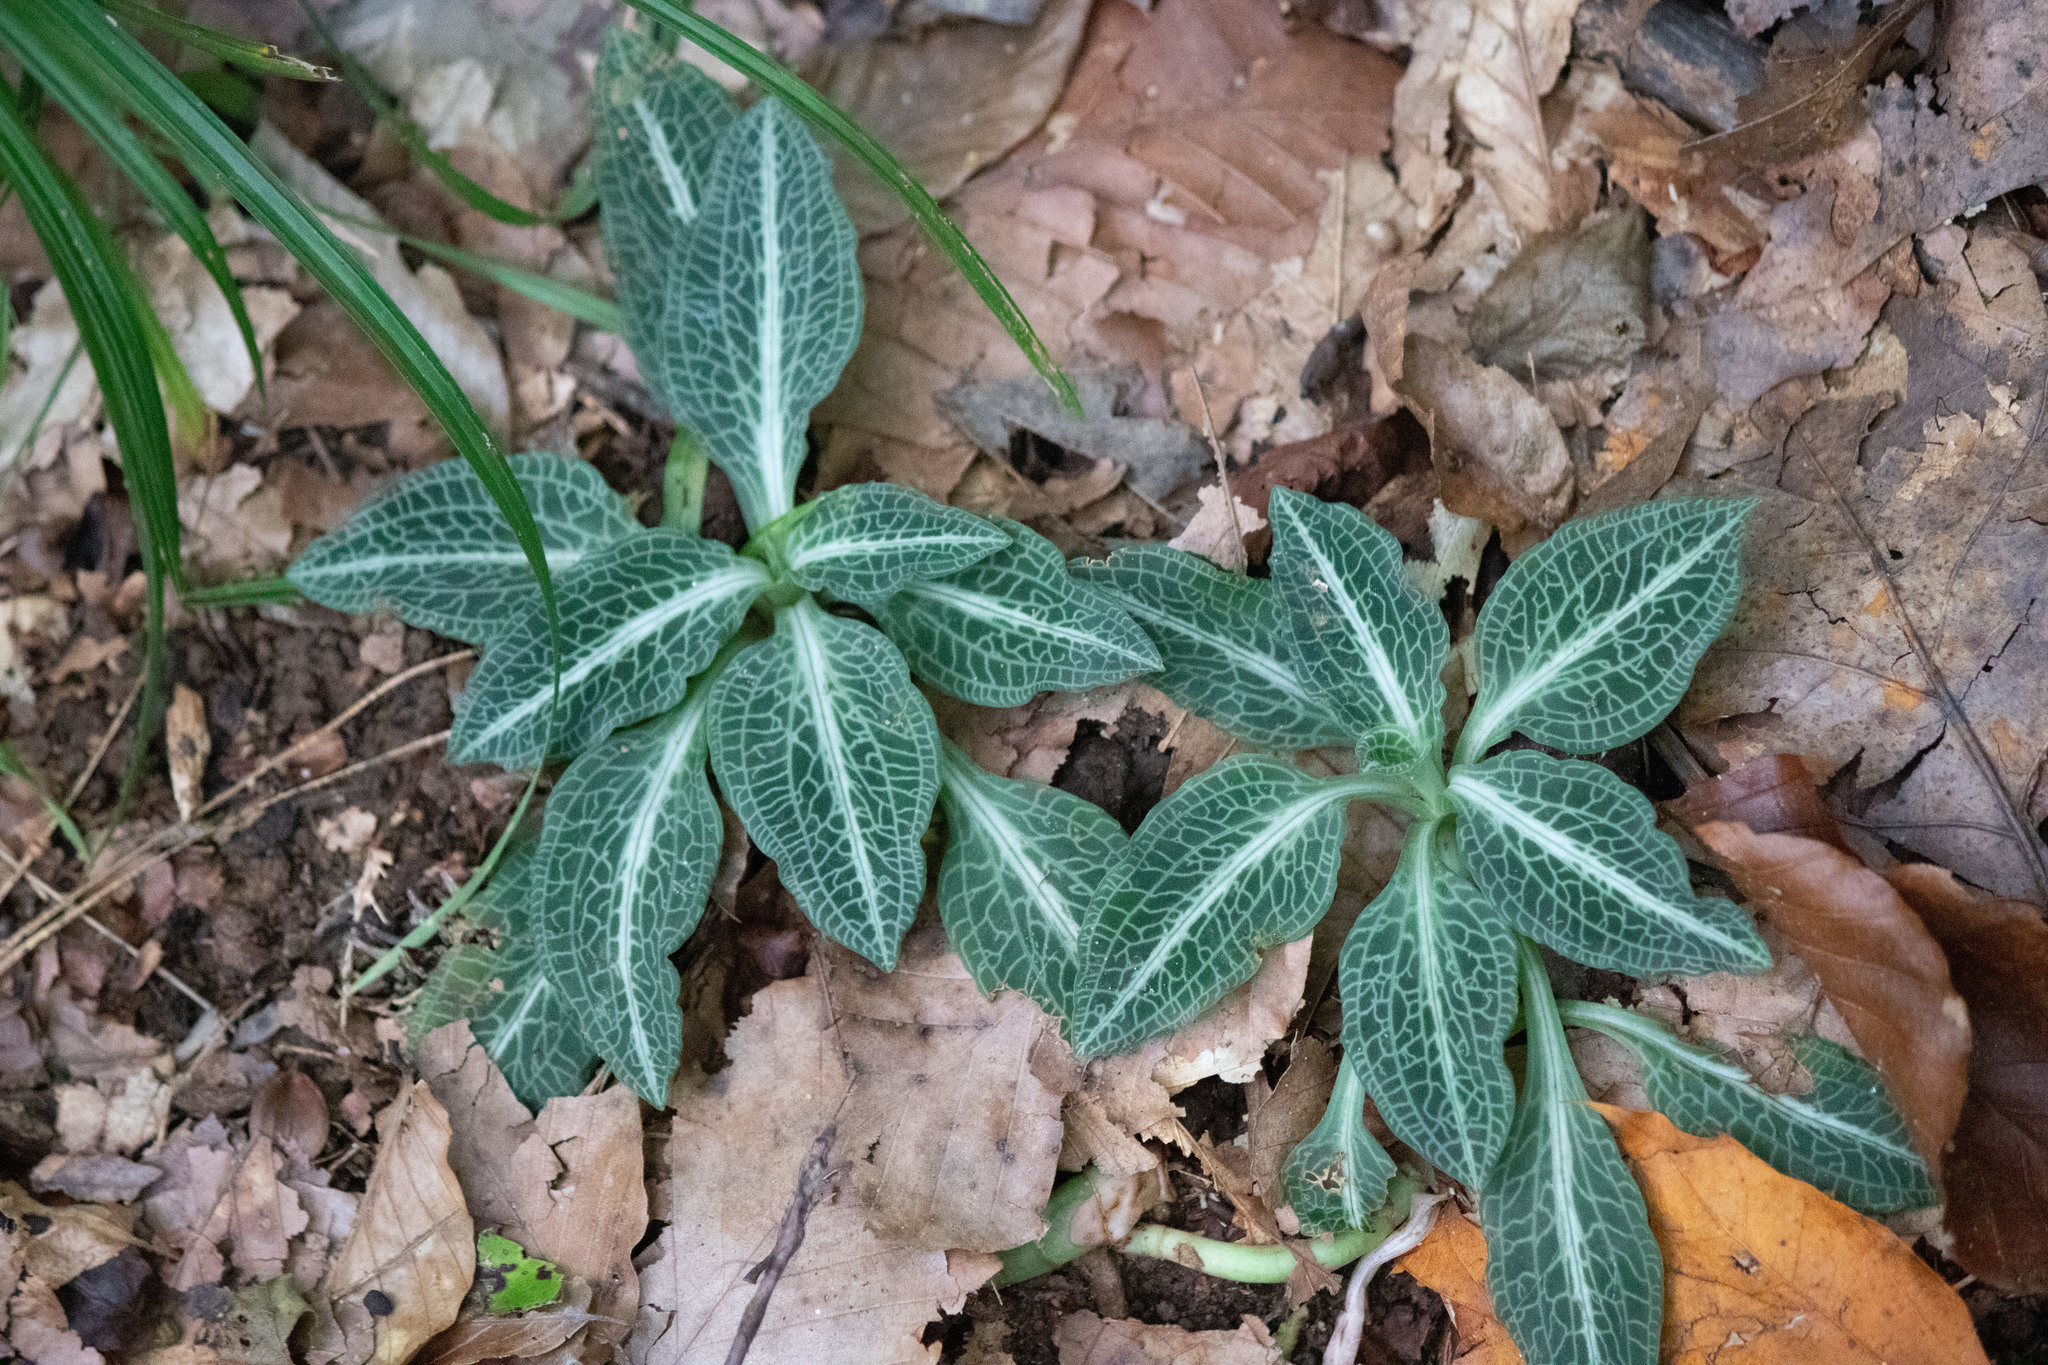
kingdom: Plantae
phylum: Tracheophyta
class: Liliopsida
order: Asparagales
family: Orchidaceae
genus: Goodyera
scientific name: Goodyera pubescens
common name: Downy rattlesnake-plantain
